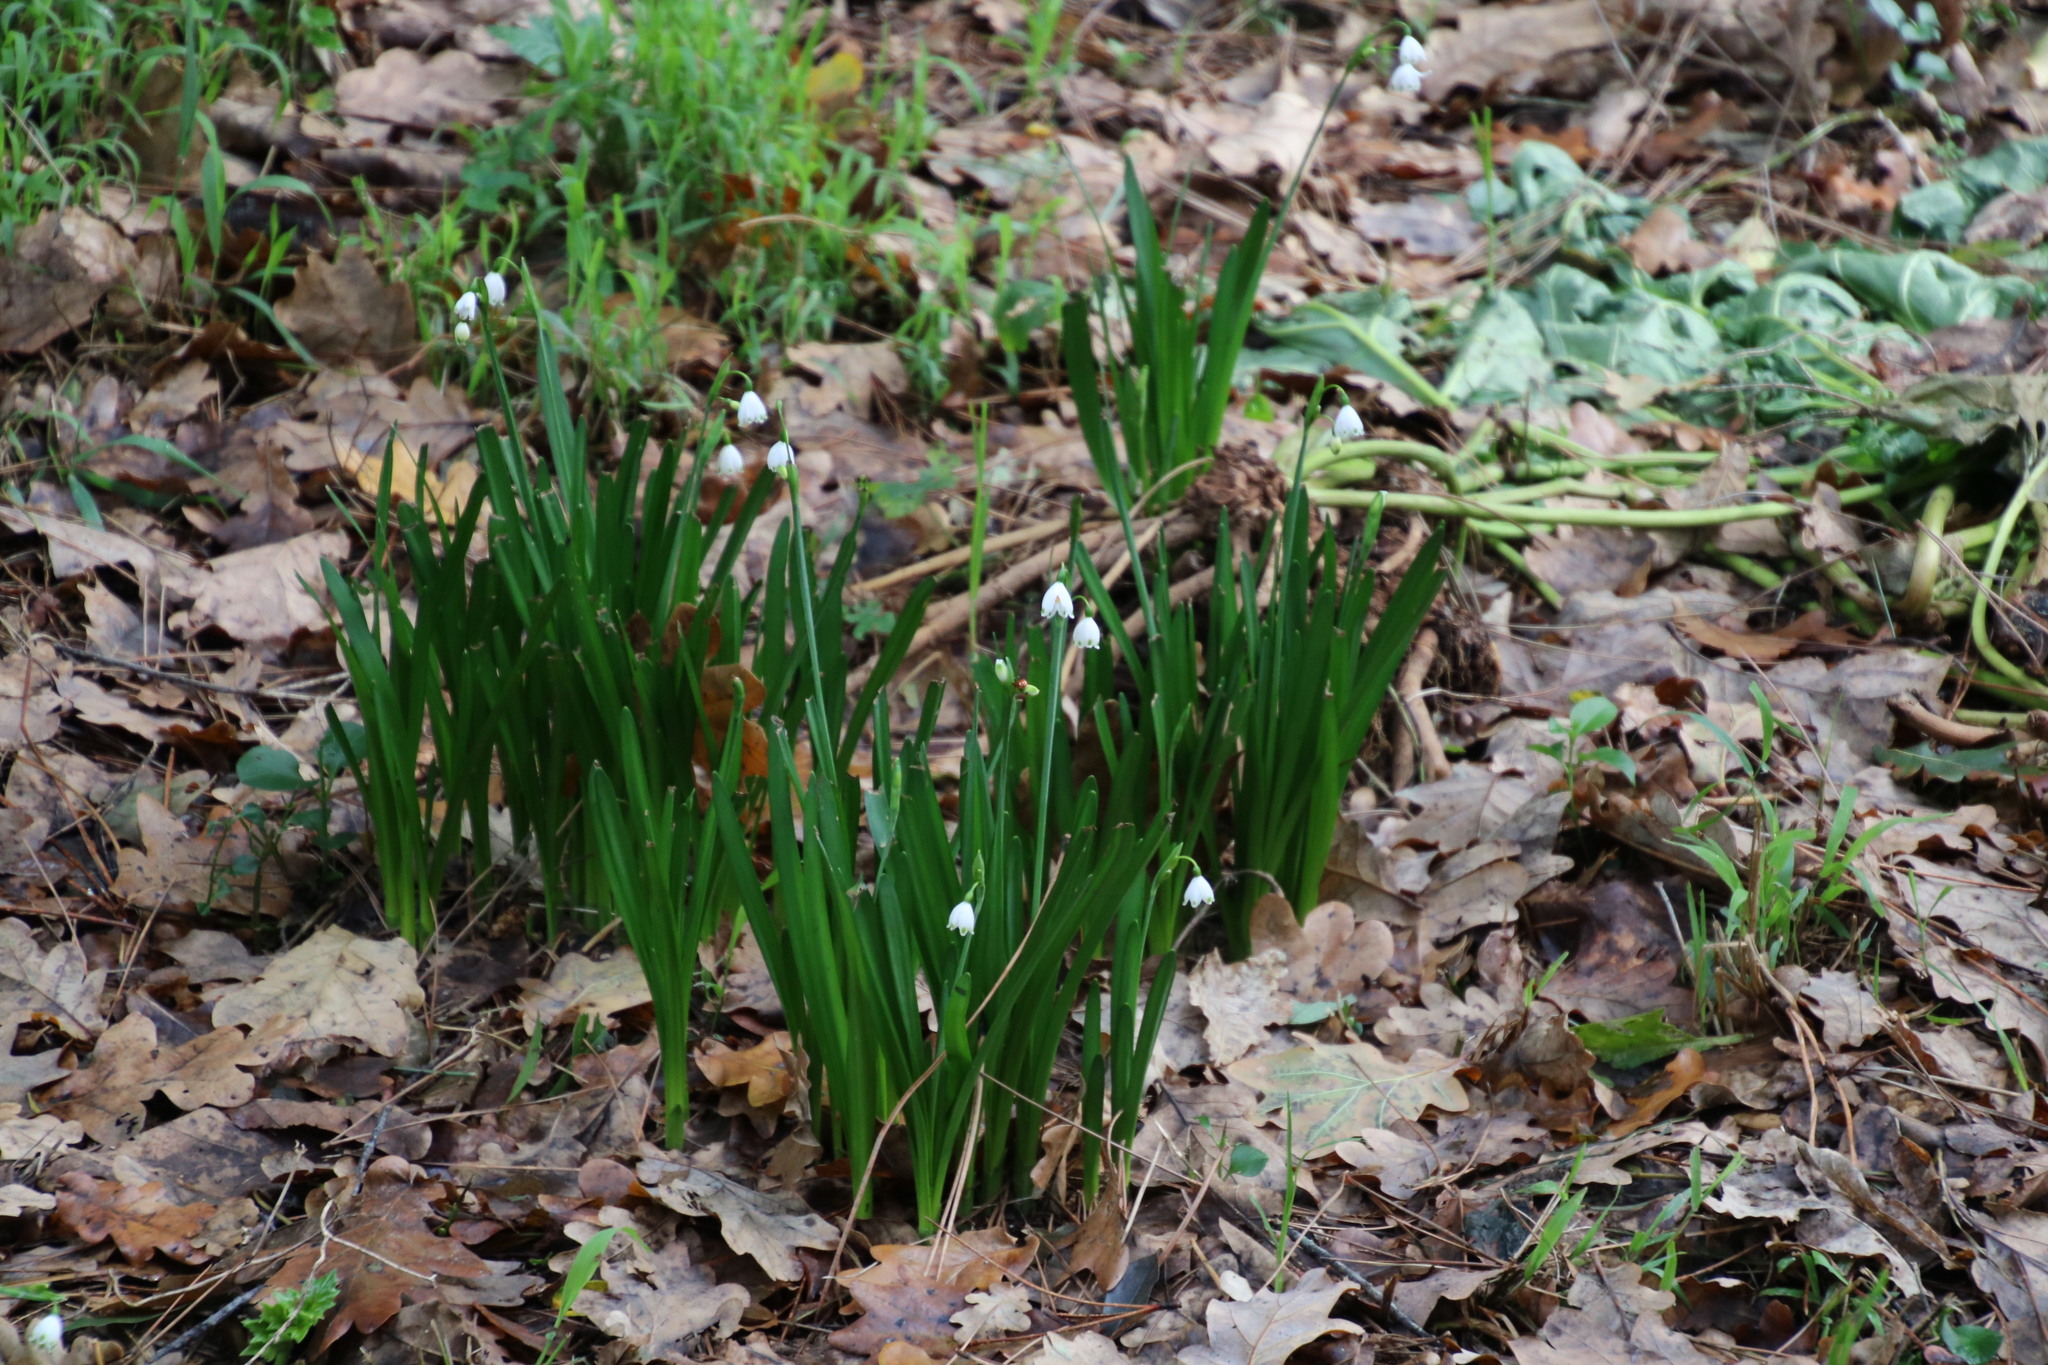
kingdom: Plantae
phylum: Tracheophyta
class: Liliopsida
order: Asparagales
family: Amaryllidaceae
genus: Leucojum
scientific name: Leucojum aestivum
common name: Summer snowflake
